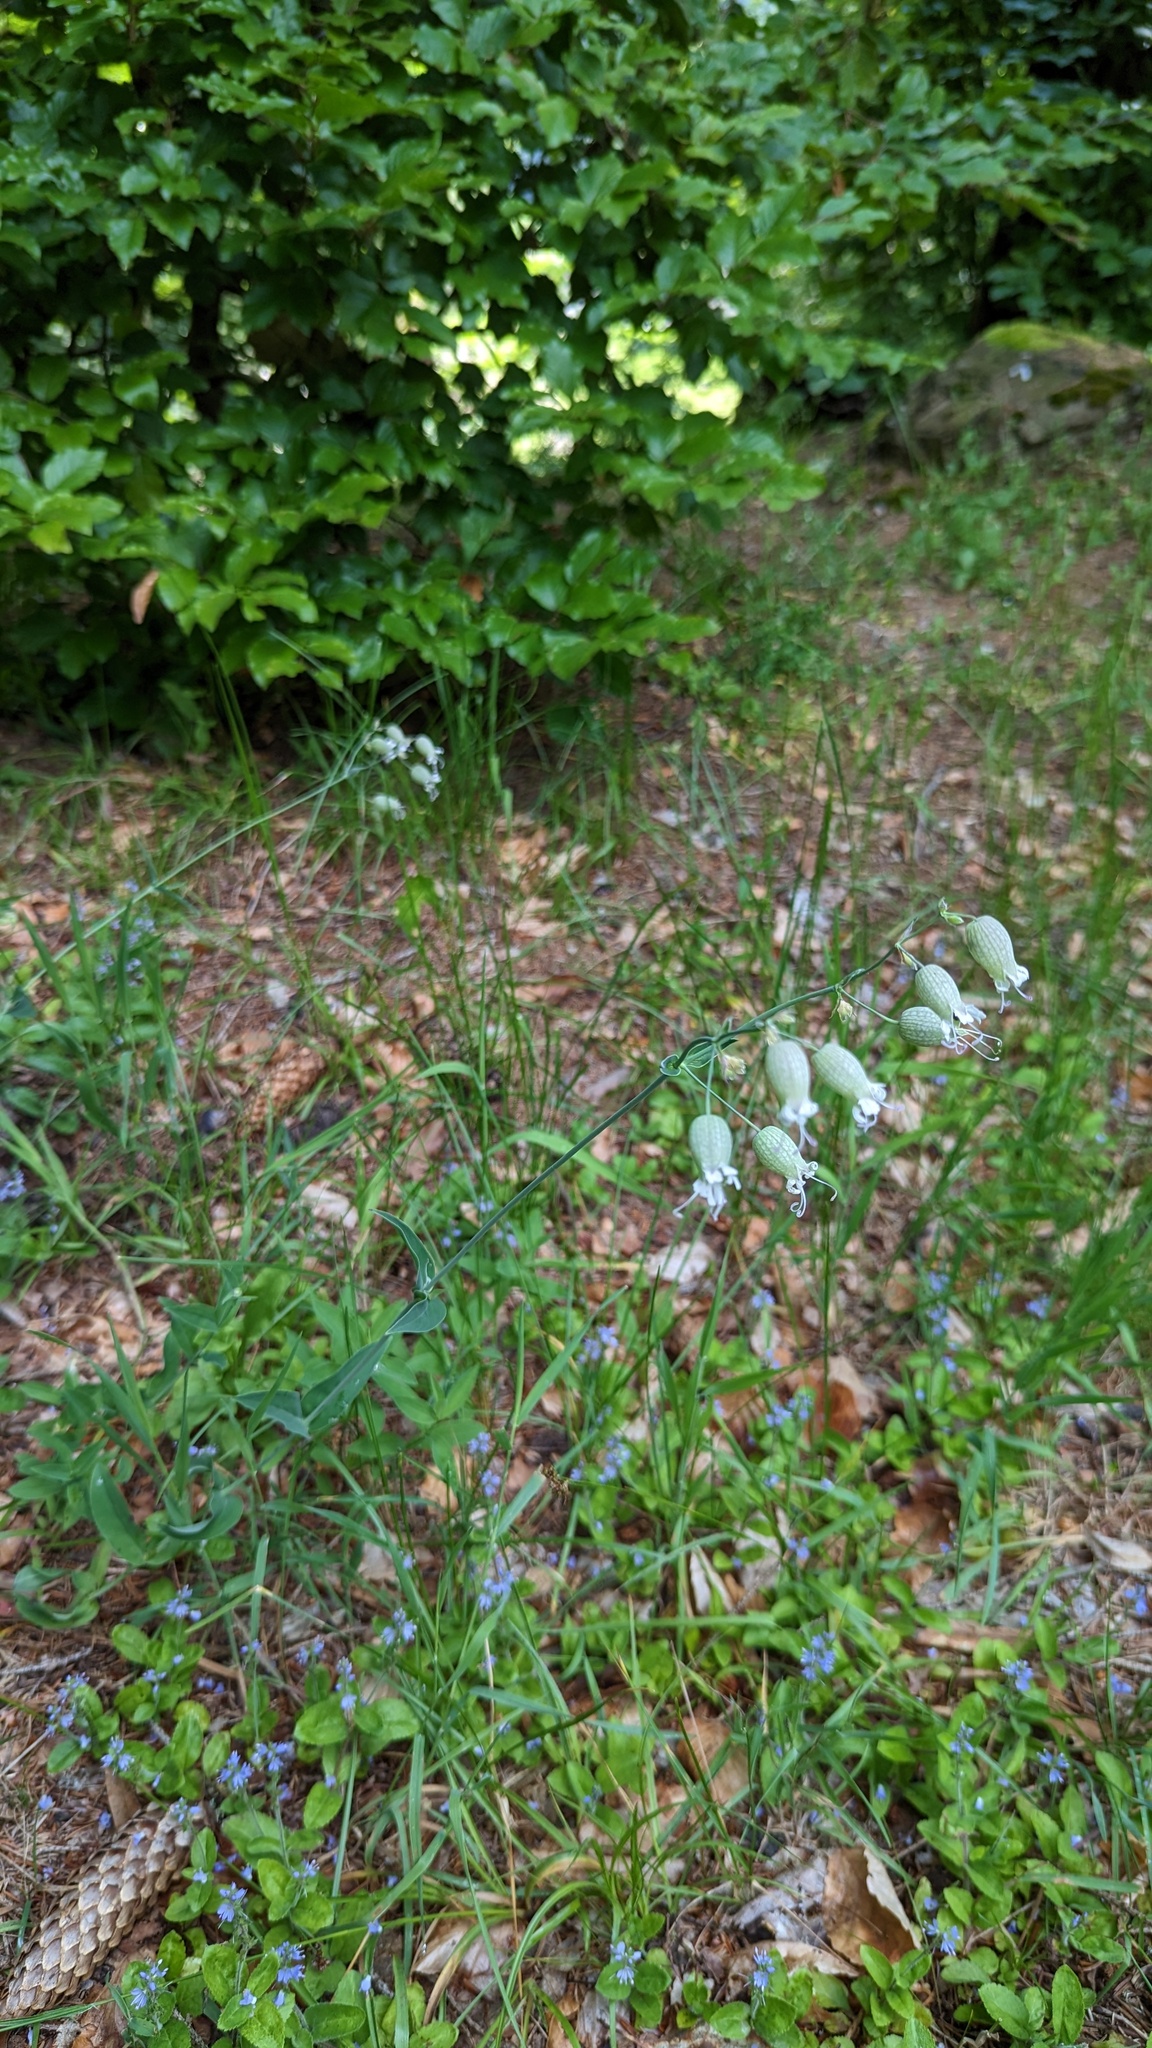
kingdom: Plantae
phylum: Tracheophyta
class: Magnoliopsida
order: Caryophyllales
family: Caryophyllaceae
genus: Silene
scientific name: Silene vulgaris
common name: Bladder campion
